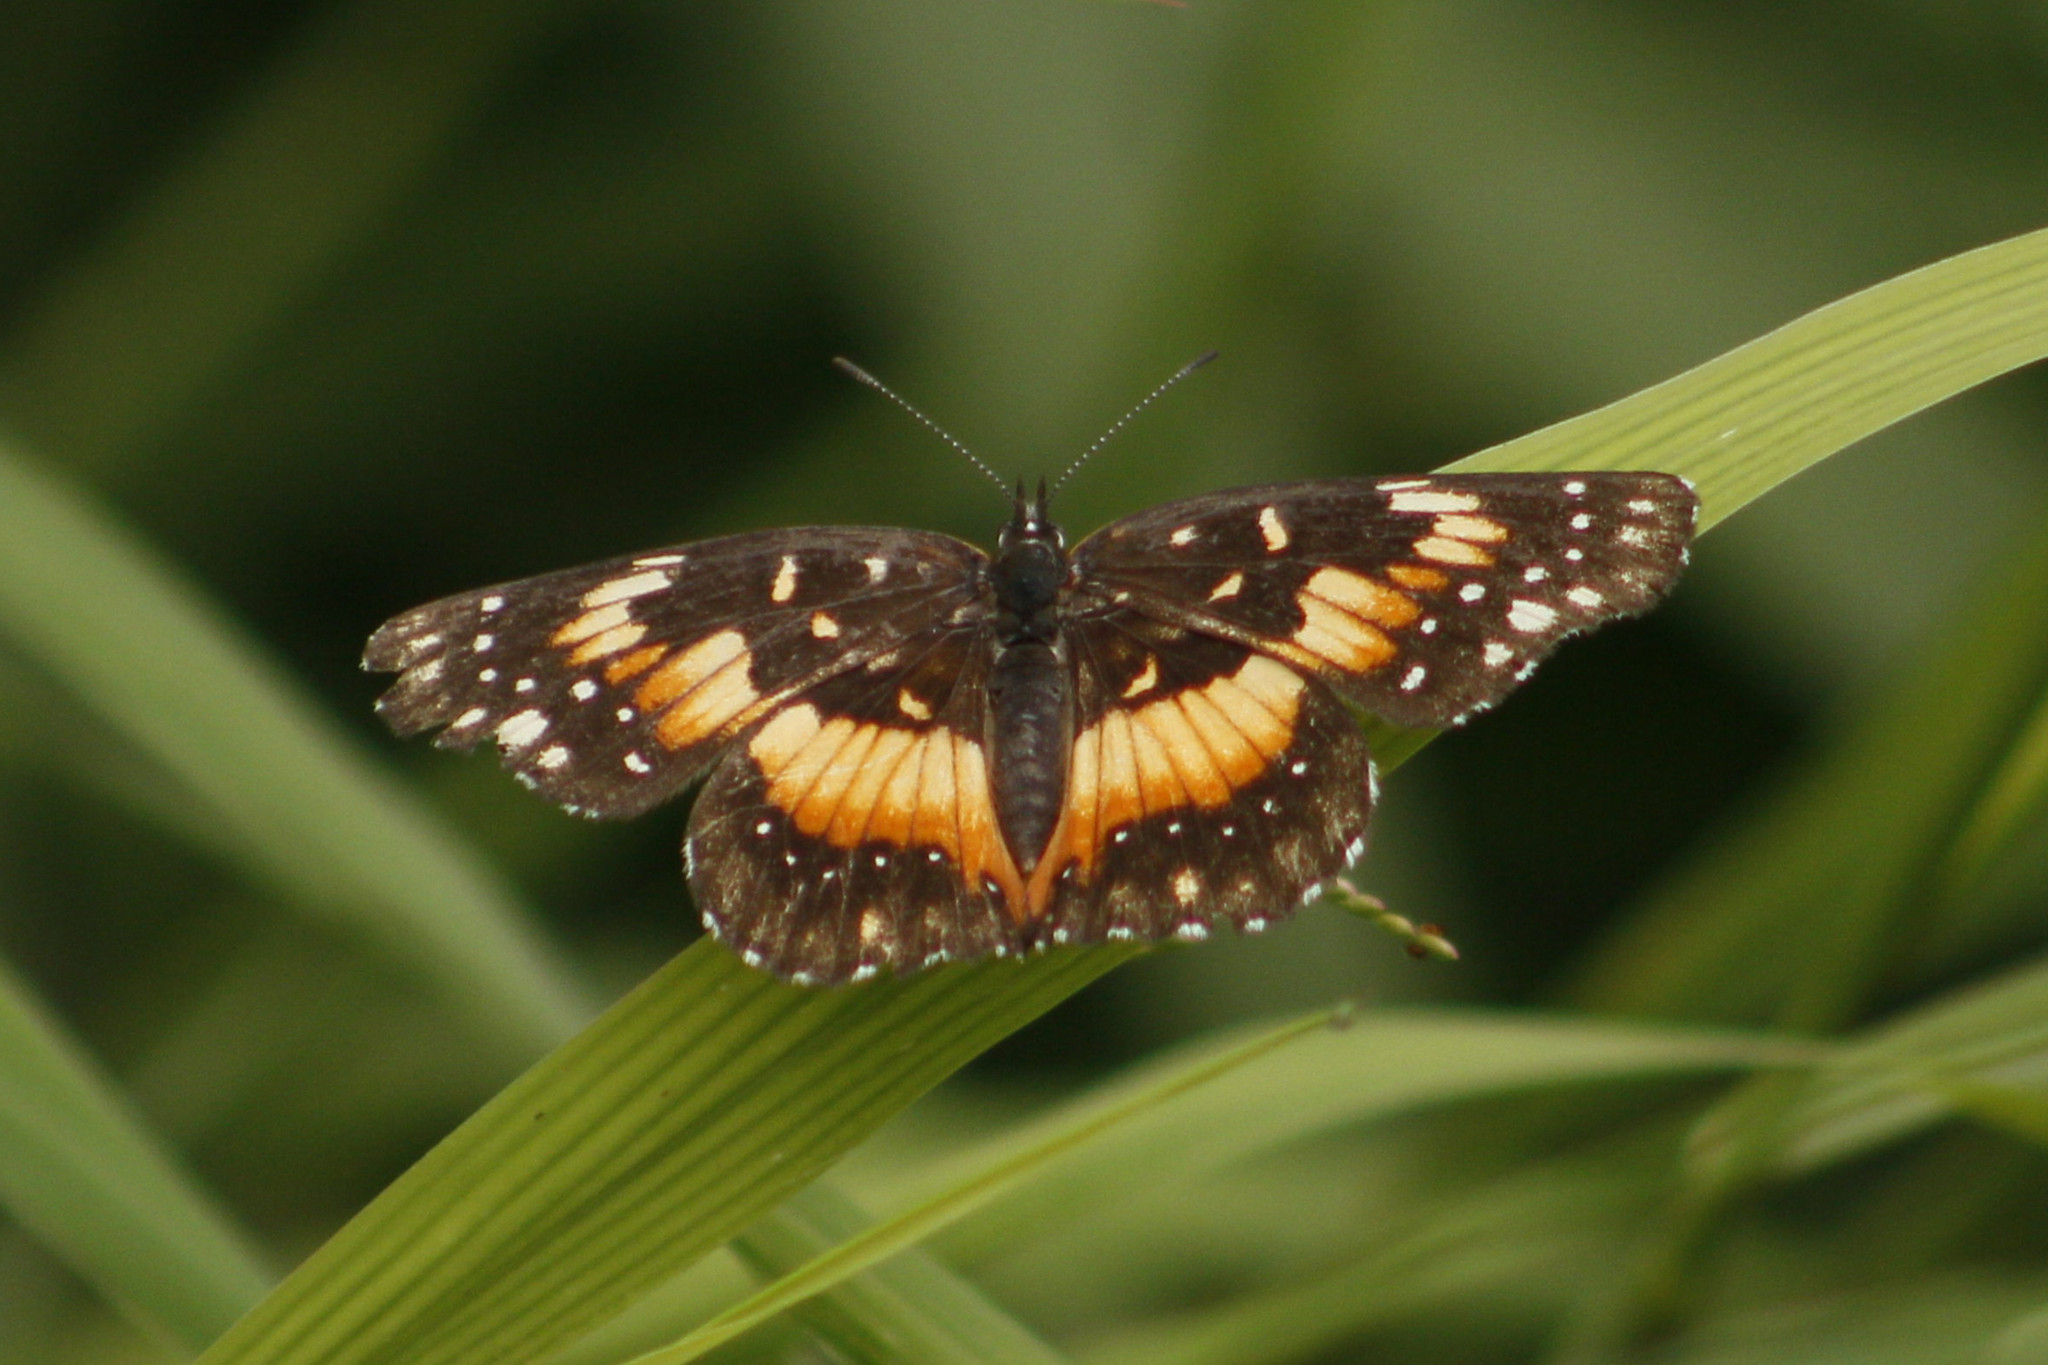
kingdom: Animalia
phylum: Arthropoda
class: Insecta
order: Lepidoptera
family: Nymphalidae
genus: Chlosyne
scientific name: Chlosyne lacinia
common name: Bordered patch
